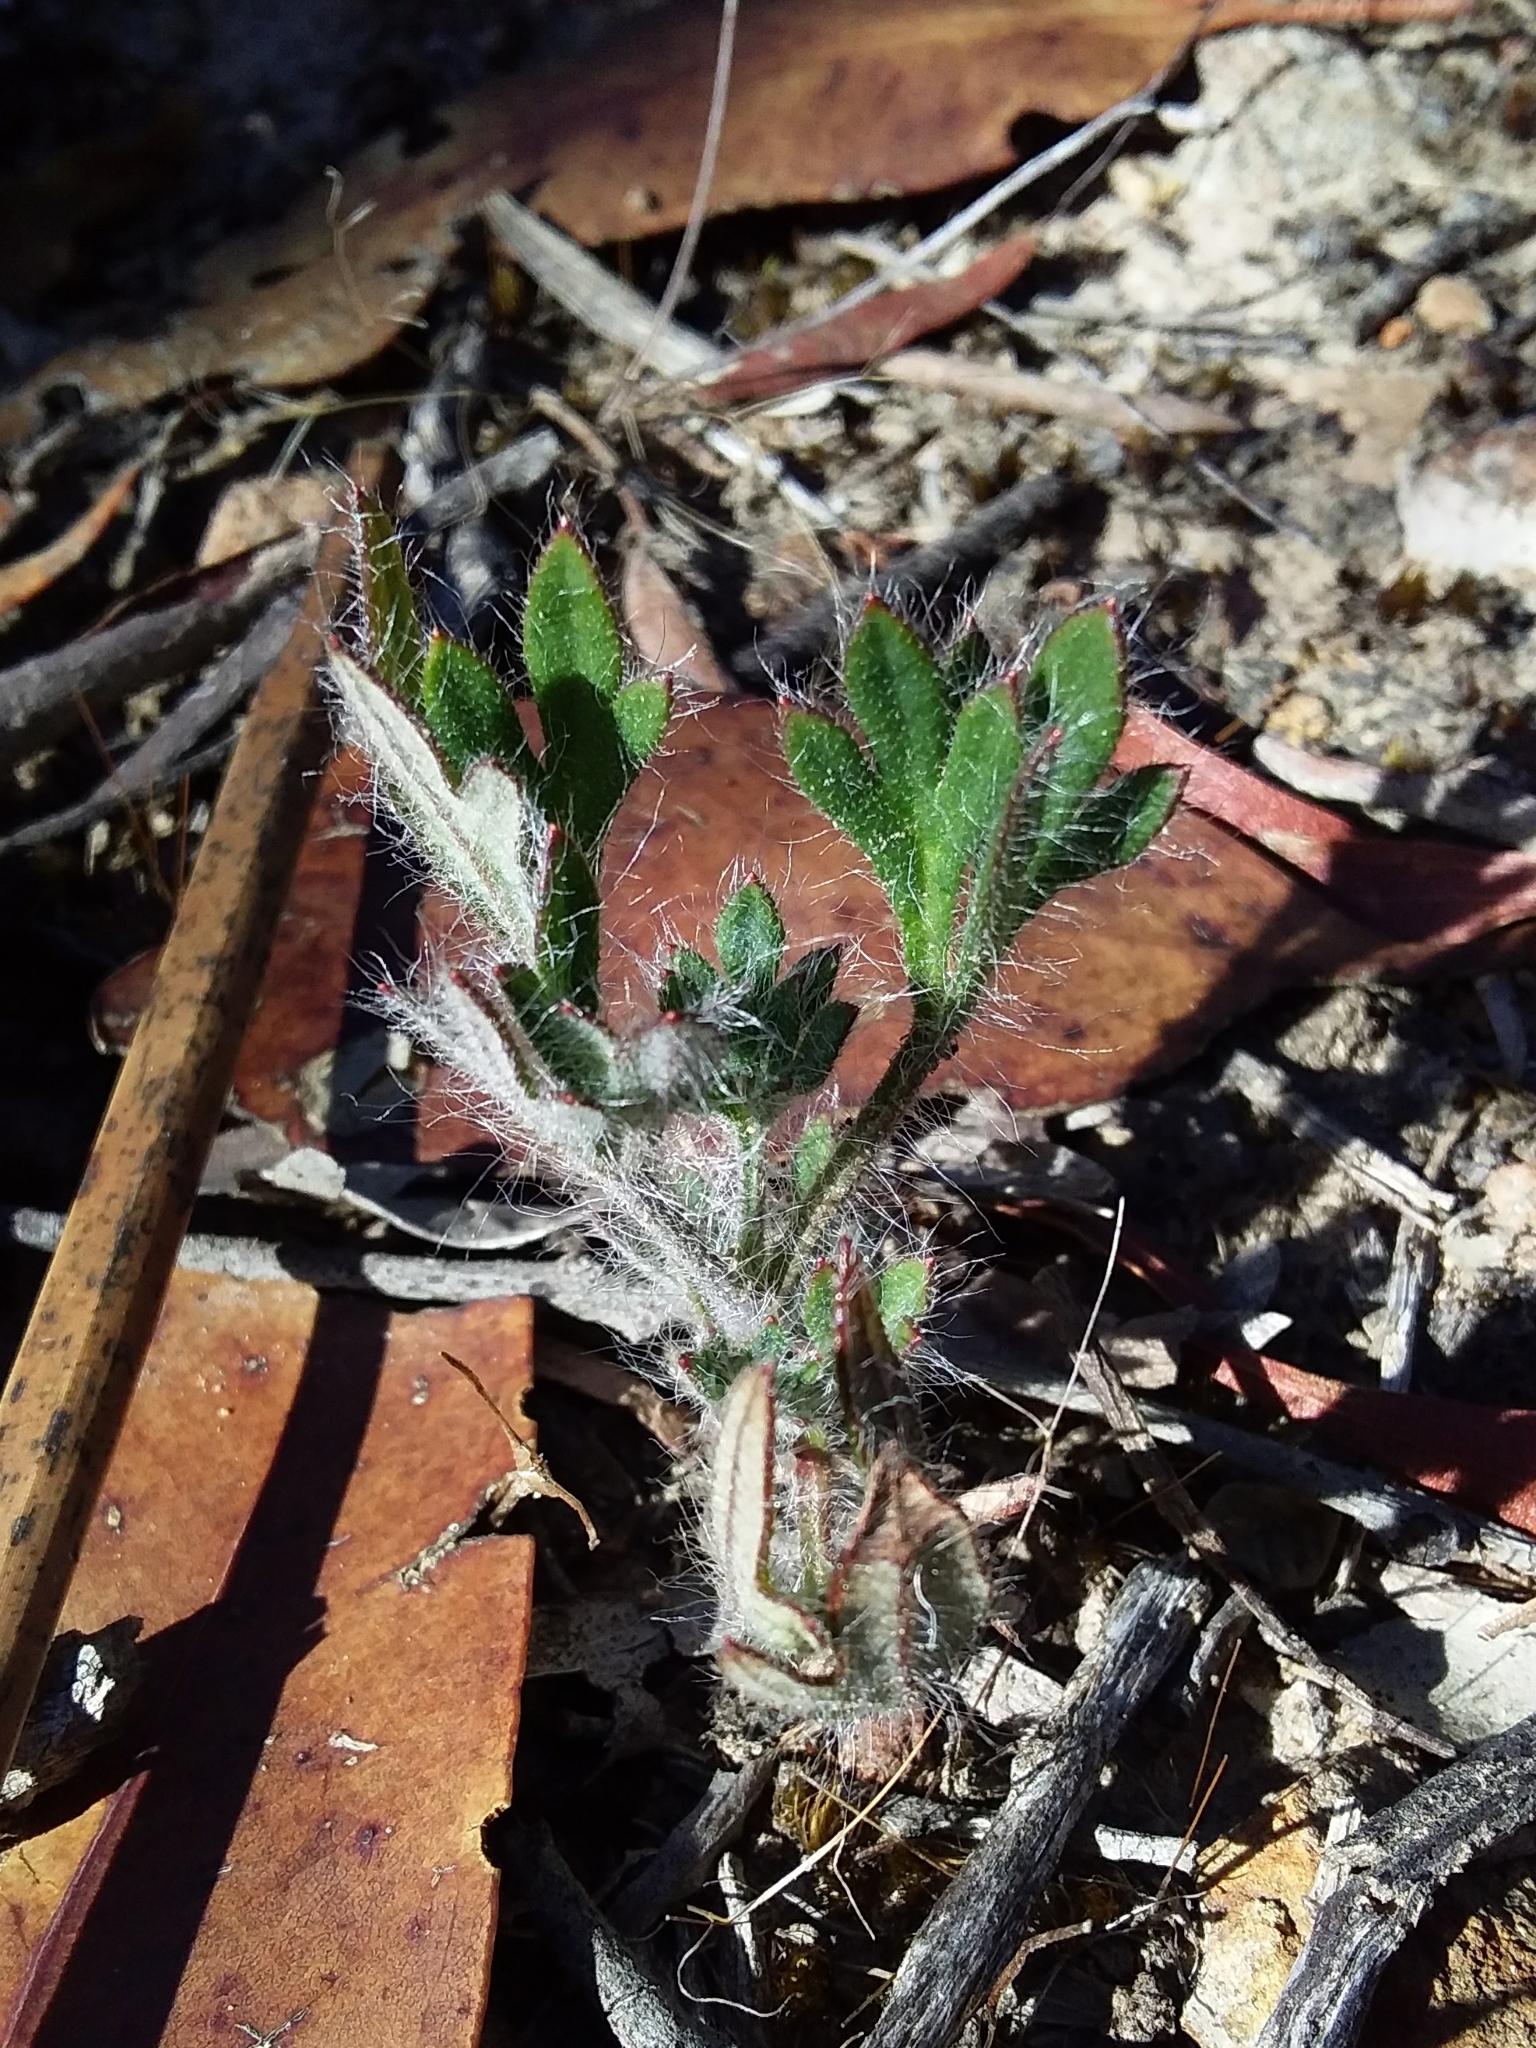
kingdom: Plantae
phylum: Tracheophyta
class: Magnoliopsida
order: Apiales
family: Apiaceae
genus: Xanthosia
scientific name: Xanthosia huegelii
